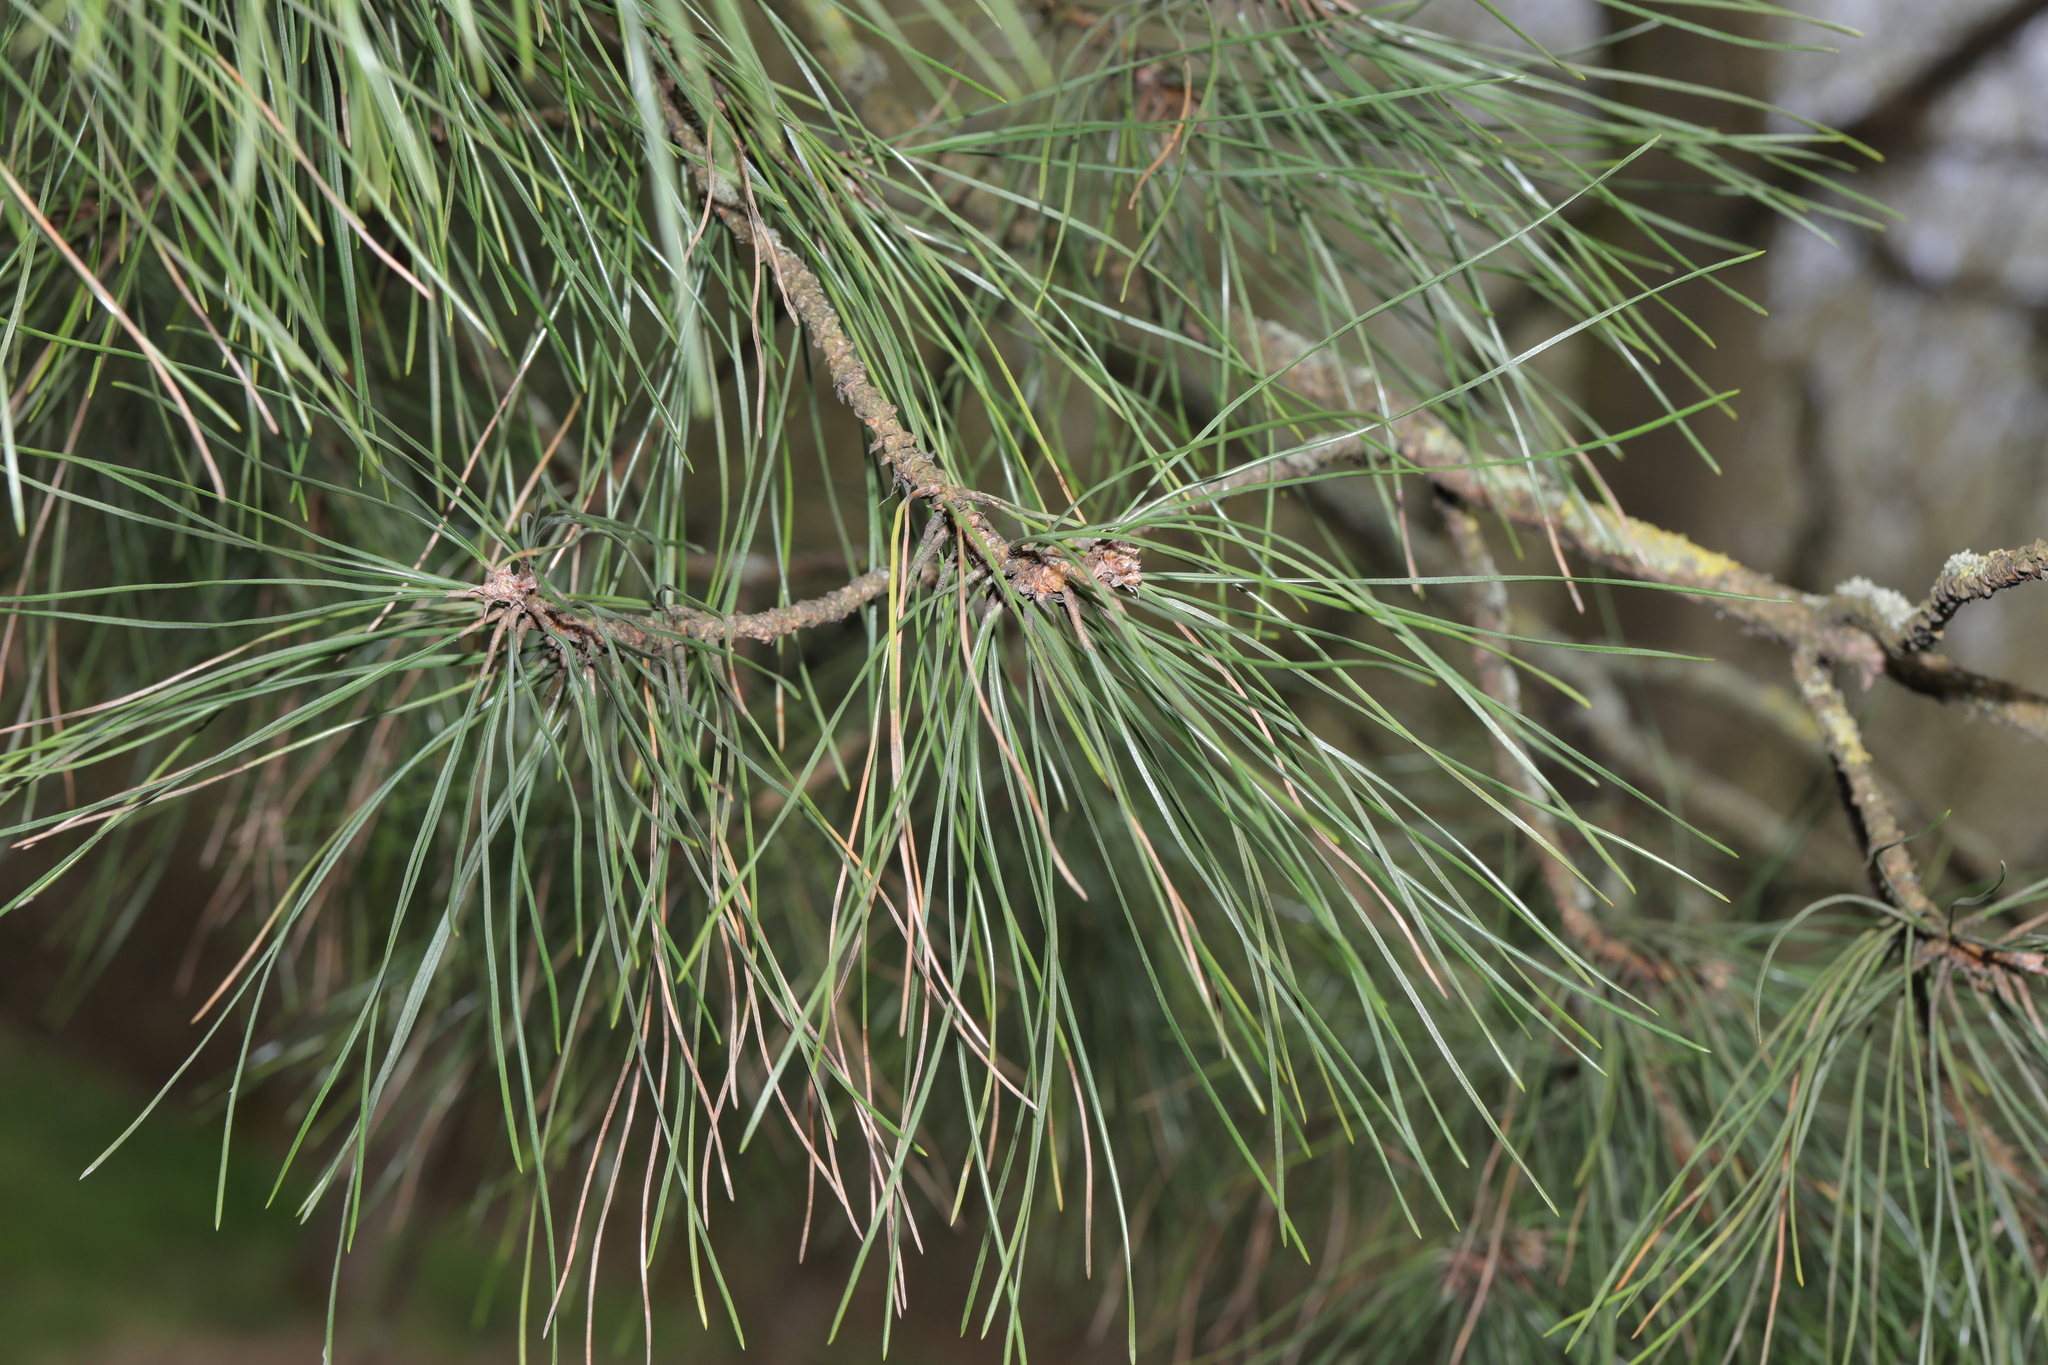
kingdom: Plantae
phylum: Tracheophyta
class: Pinopsida
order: Pinales
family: Pinaceae
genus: Pinus
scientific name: Pinus sylvestris
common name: Scots pine
